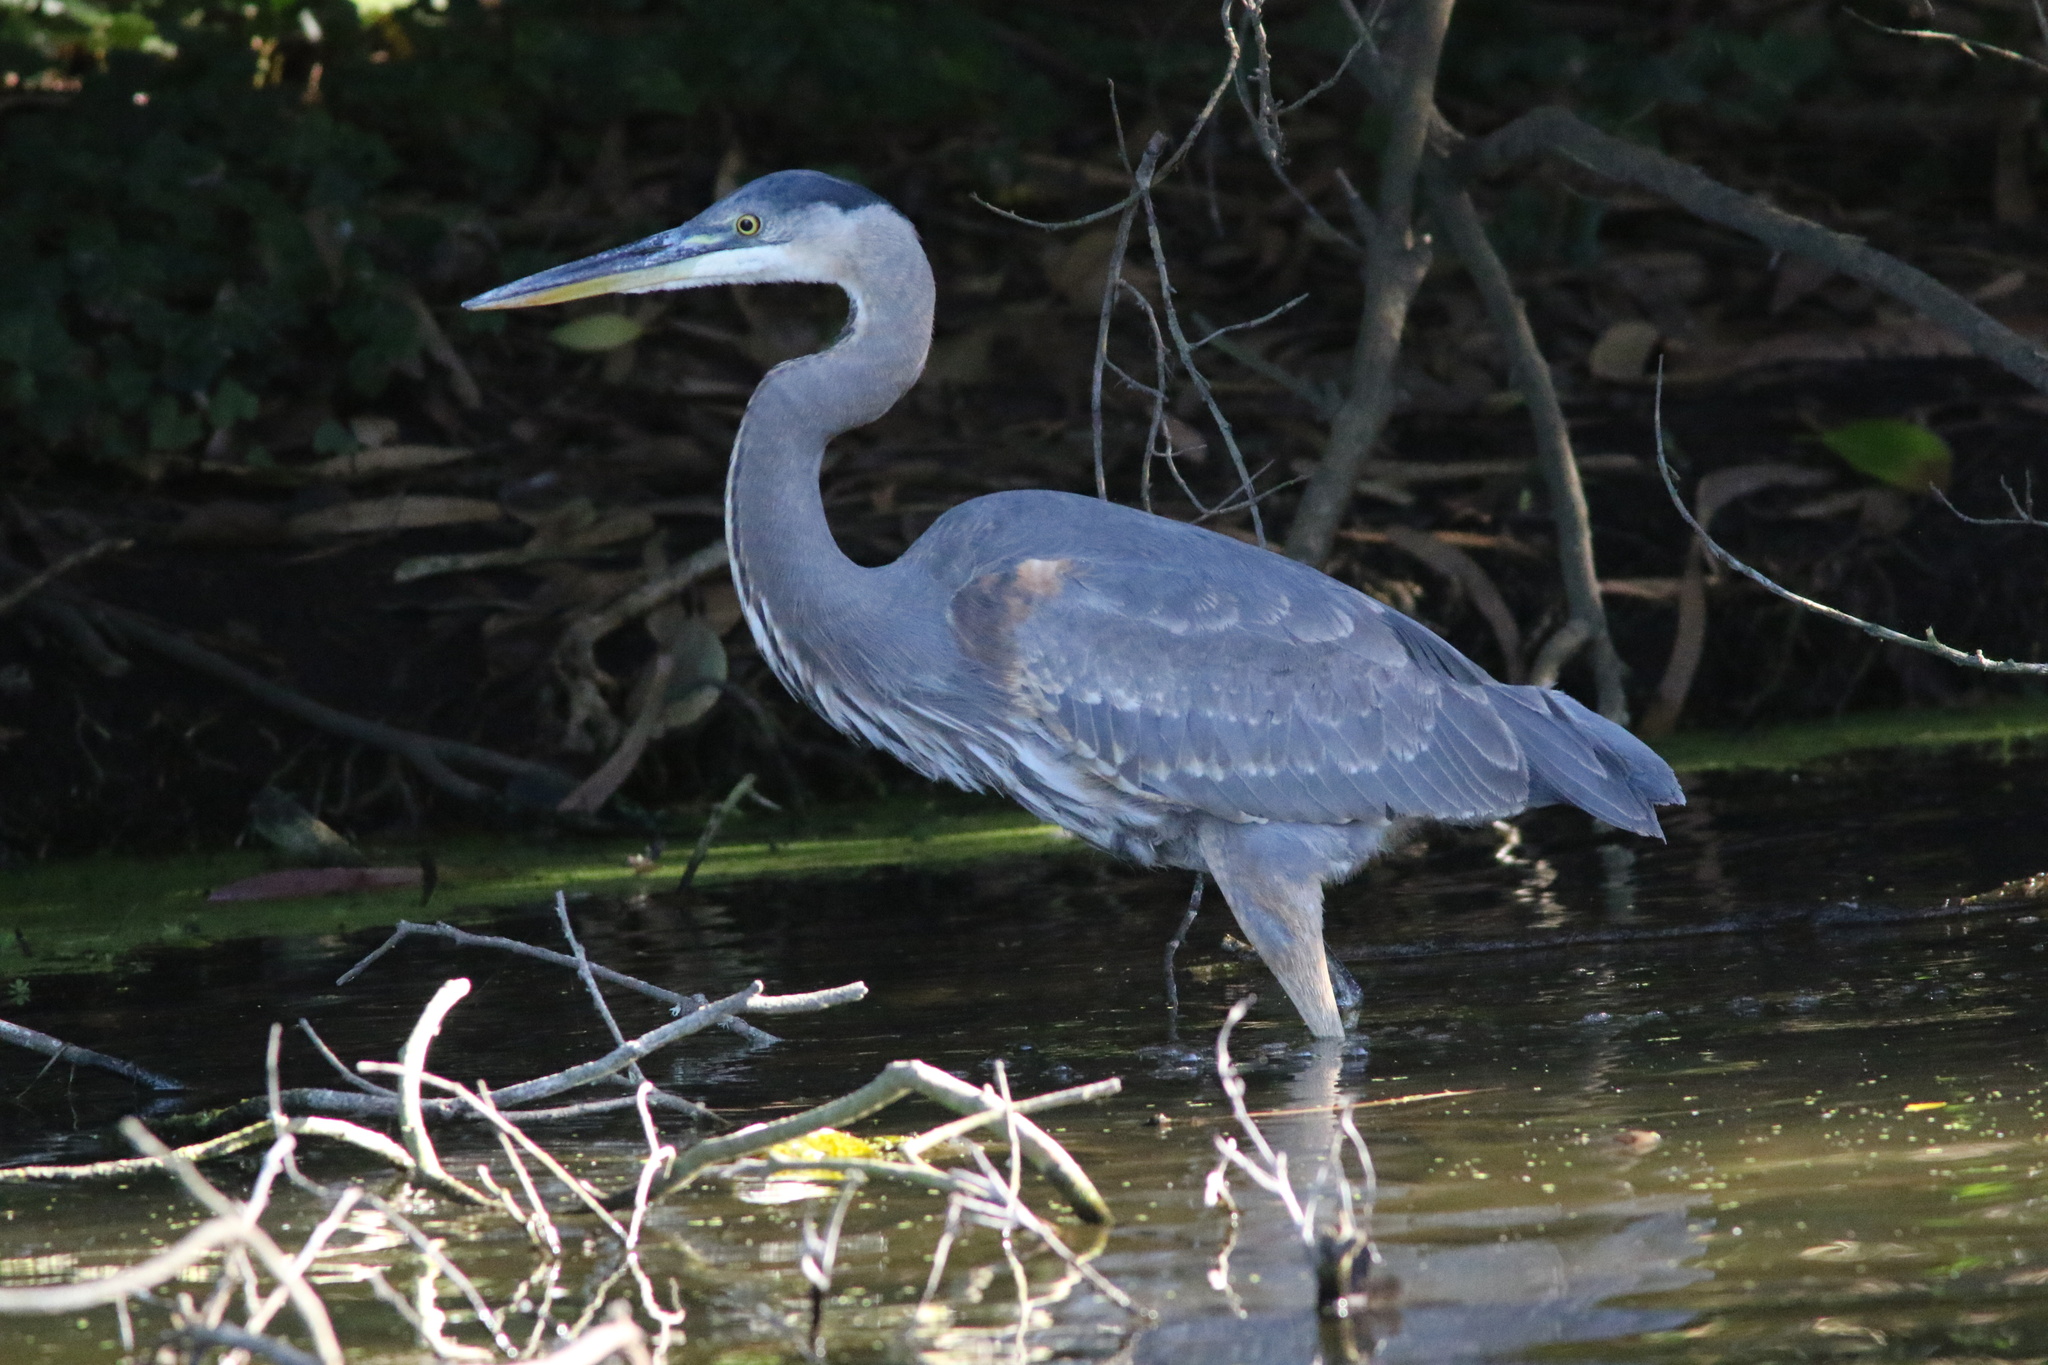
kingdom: Animalia
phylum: Chordata
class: Aves
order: Pelecaniformes
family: Ardeidae
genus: Ardea
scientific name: Ardea herodias
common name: Great blue heron
